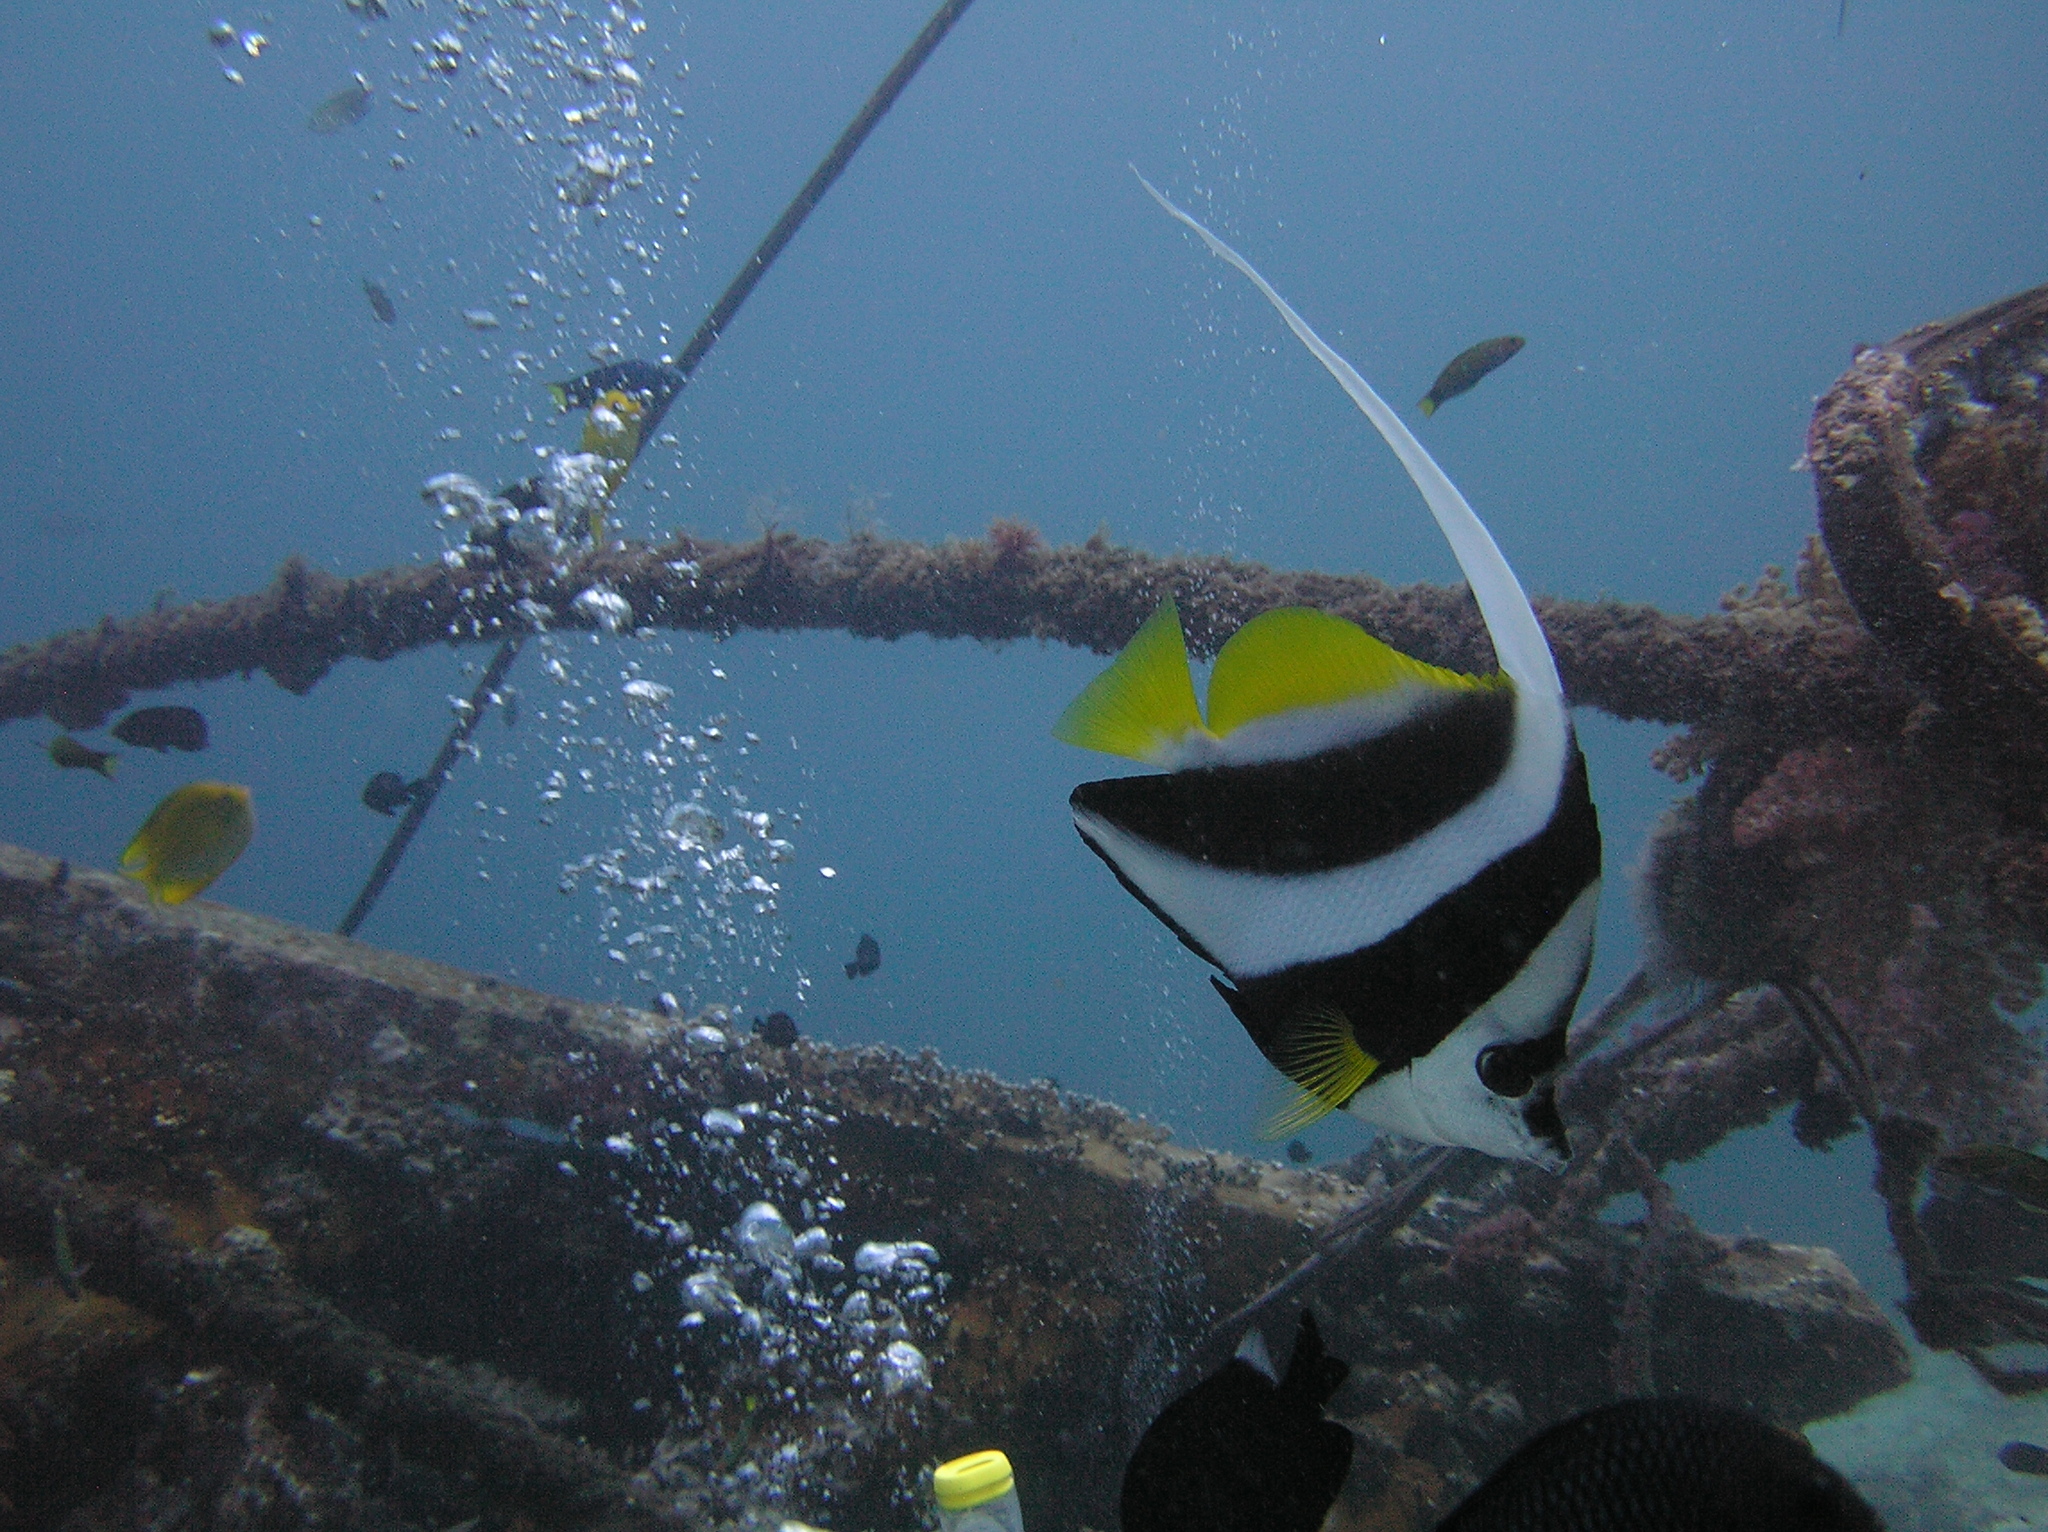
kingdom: Animalia
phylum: Chordata
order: Perciformes
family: Chaetodontidae
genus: Heniochus
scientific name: Heniochus acuminatus
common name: Pennant coralfish
